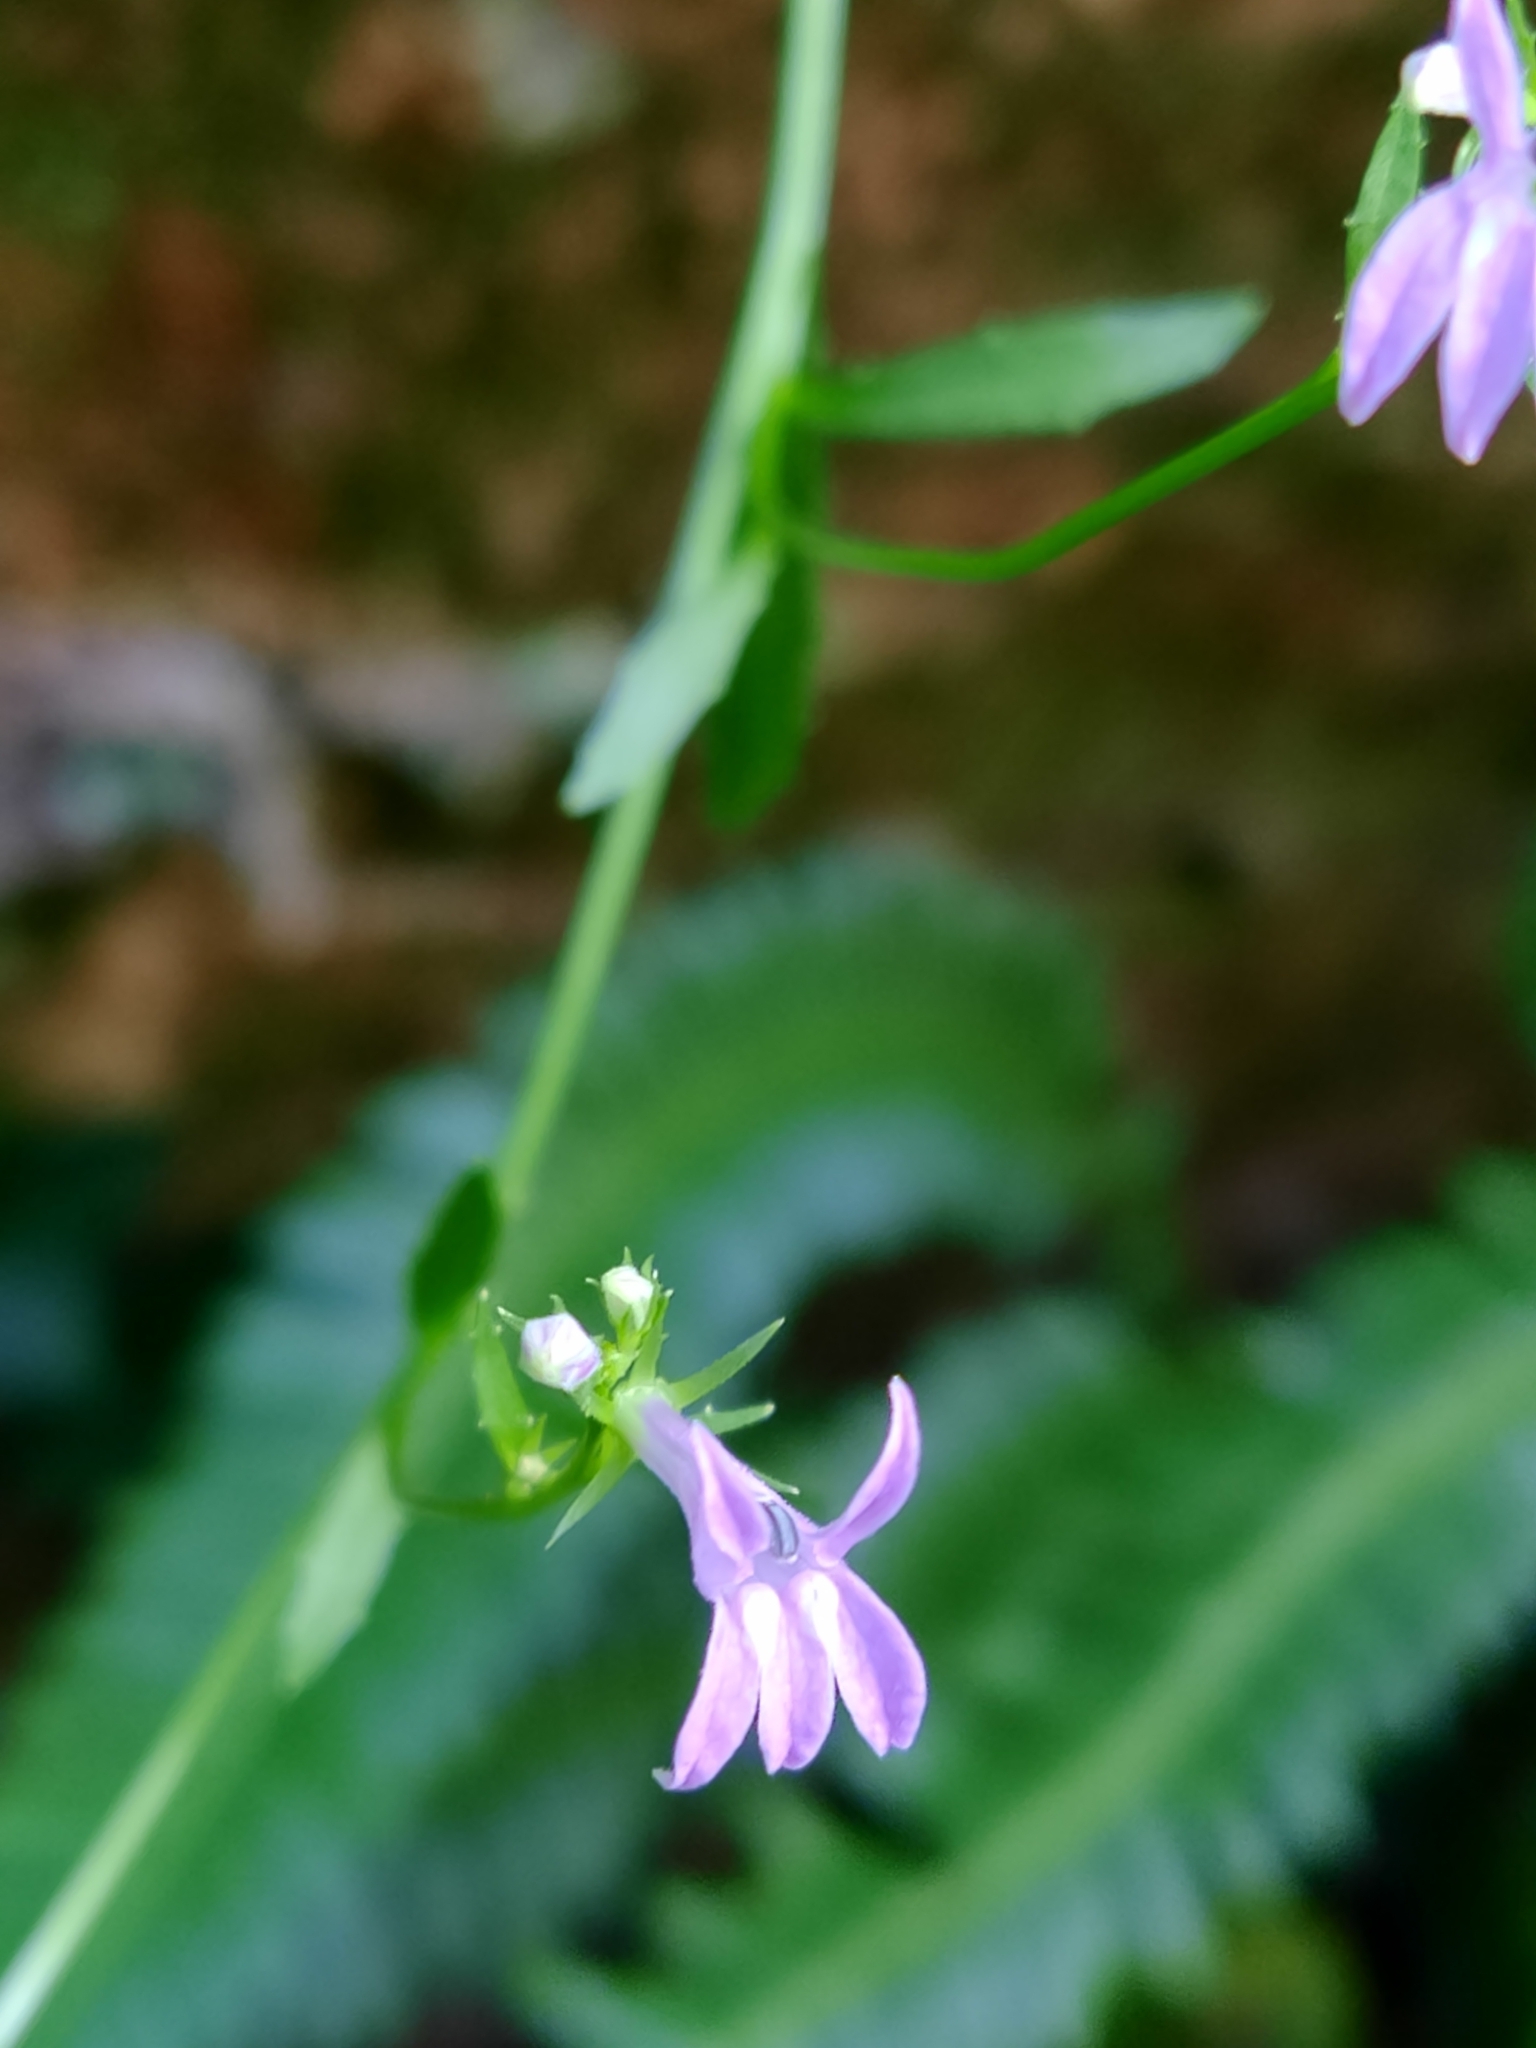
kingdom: Plantae
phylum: Tracheophyta
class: Magnoliopsida
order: Asterales
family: Campanulaceae
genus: Lobelia
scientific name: Lobelia urens
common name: Heath lobelia
